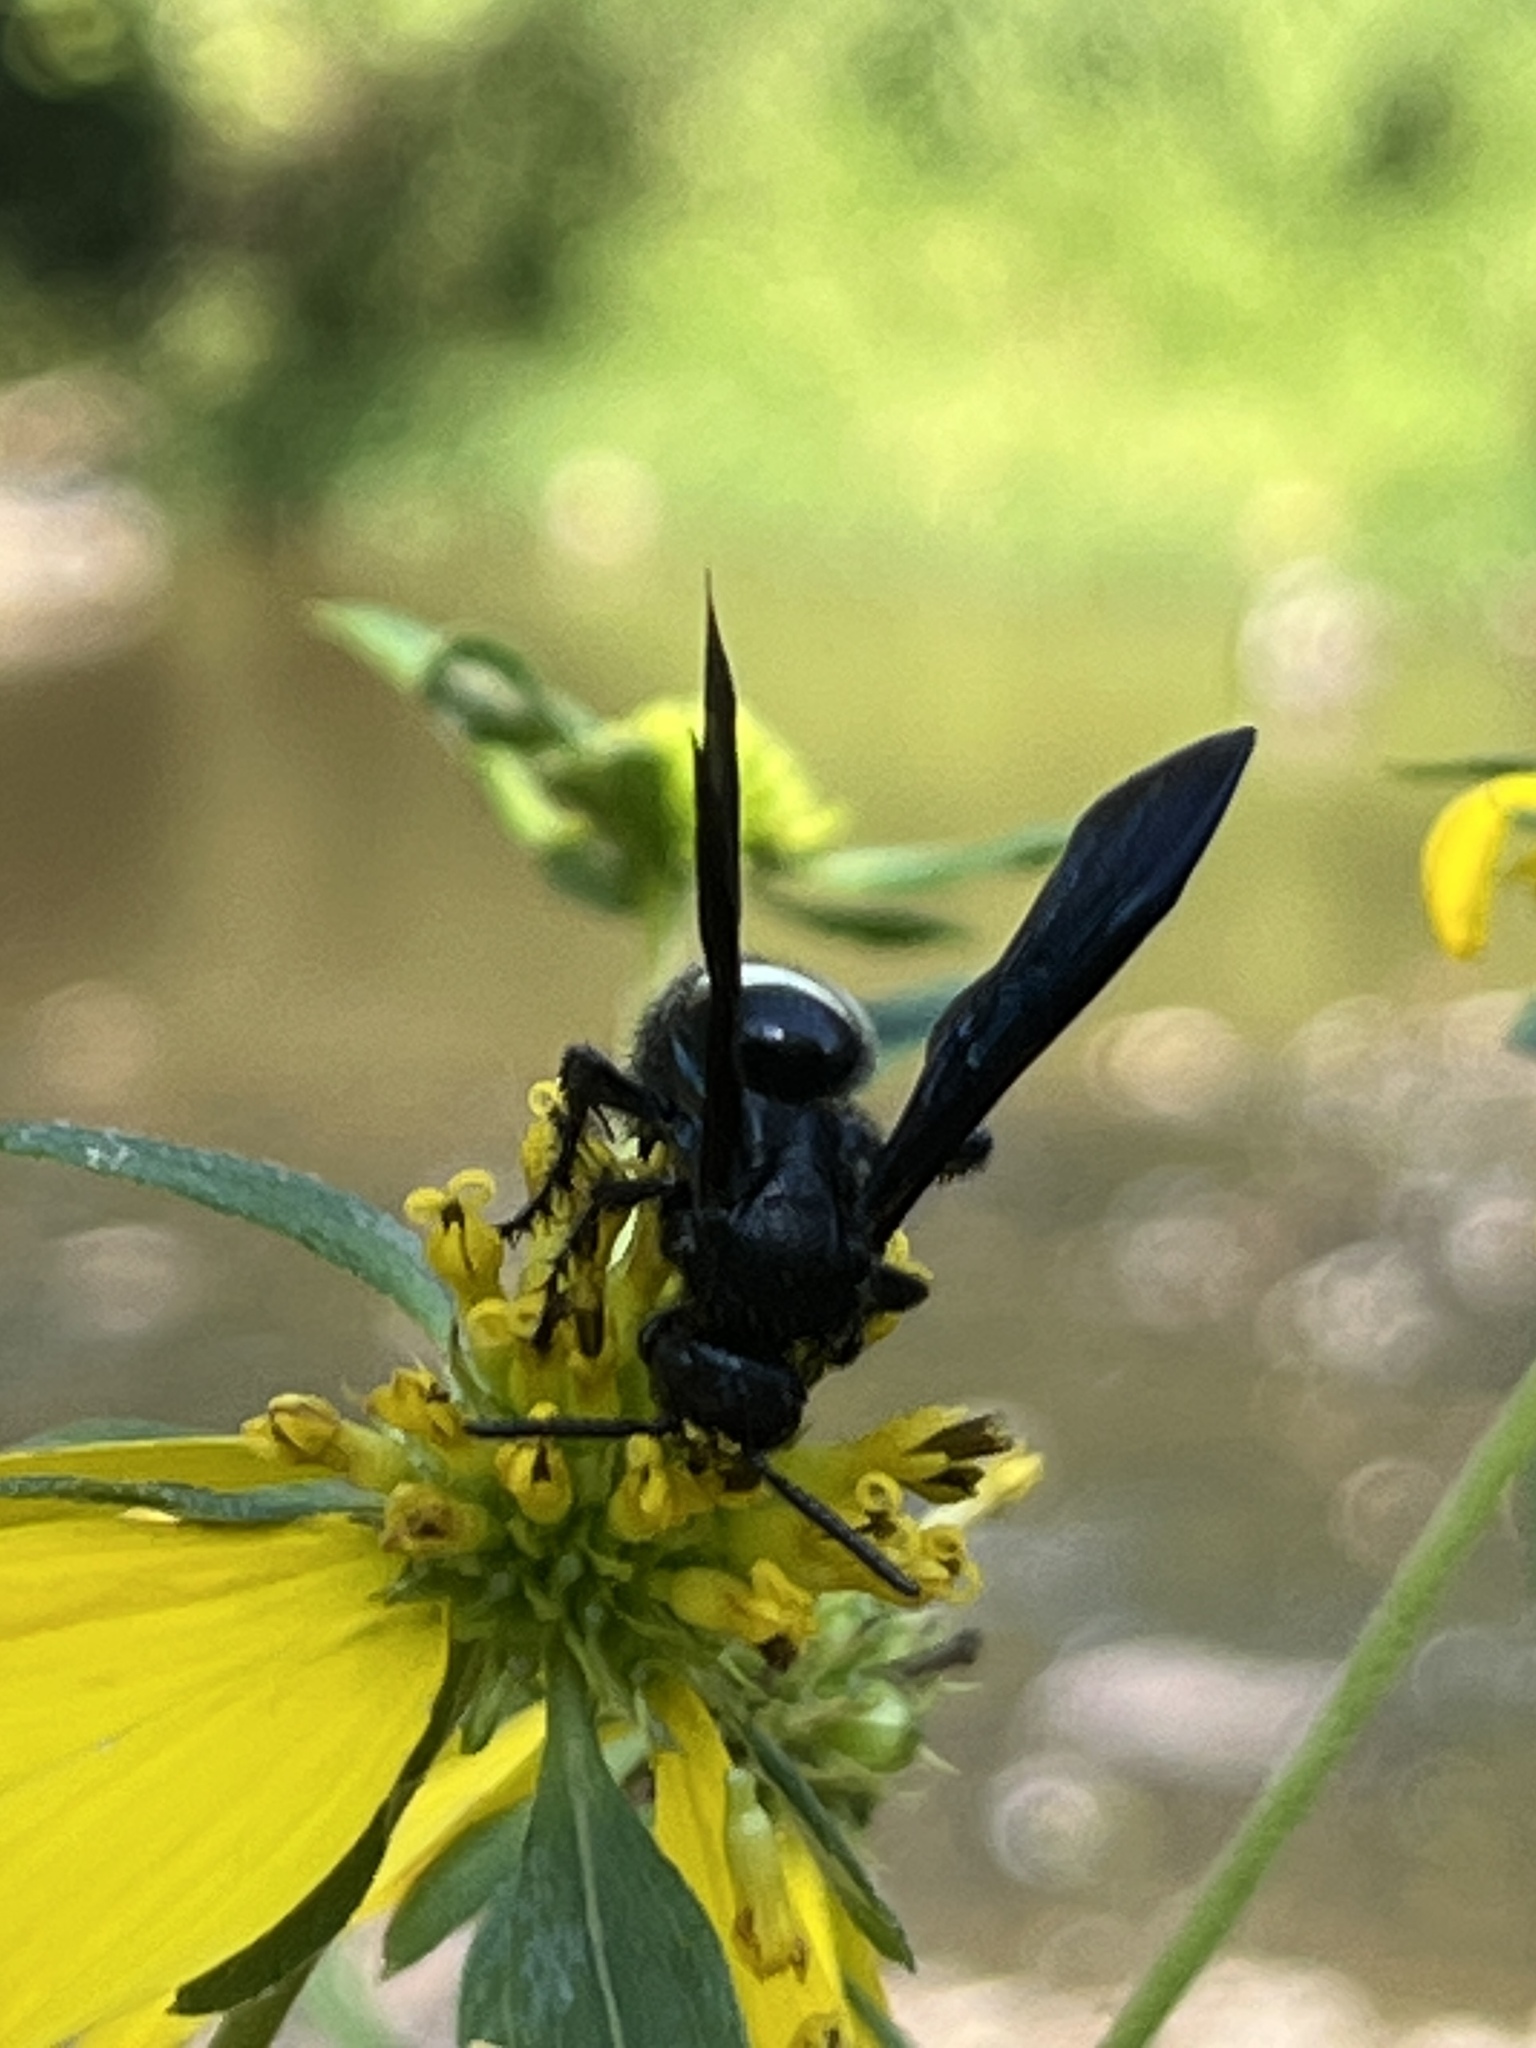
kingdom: Animalia
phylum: Arthropoda
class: Insecta
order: Hymenoptera
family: Scoliidae
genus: Scolia
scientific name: Scolia bicincta
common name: Double-banded scoliid wasp
